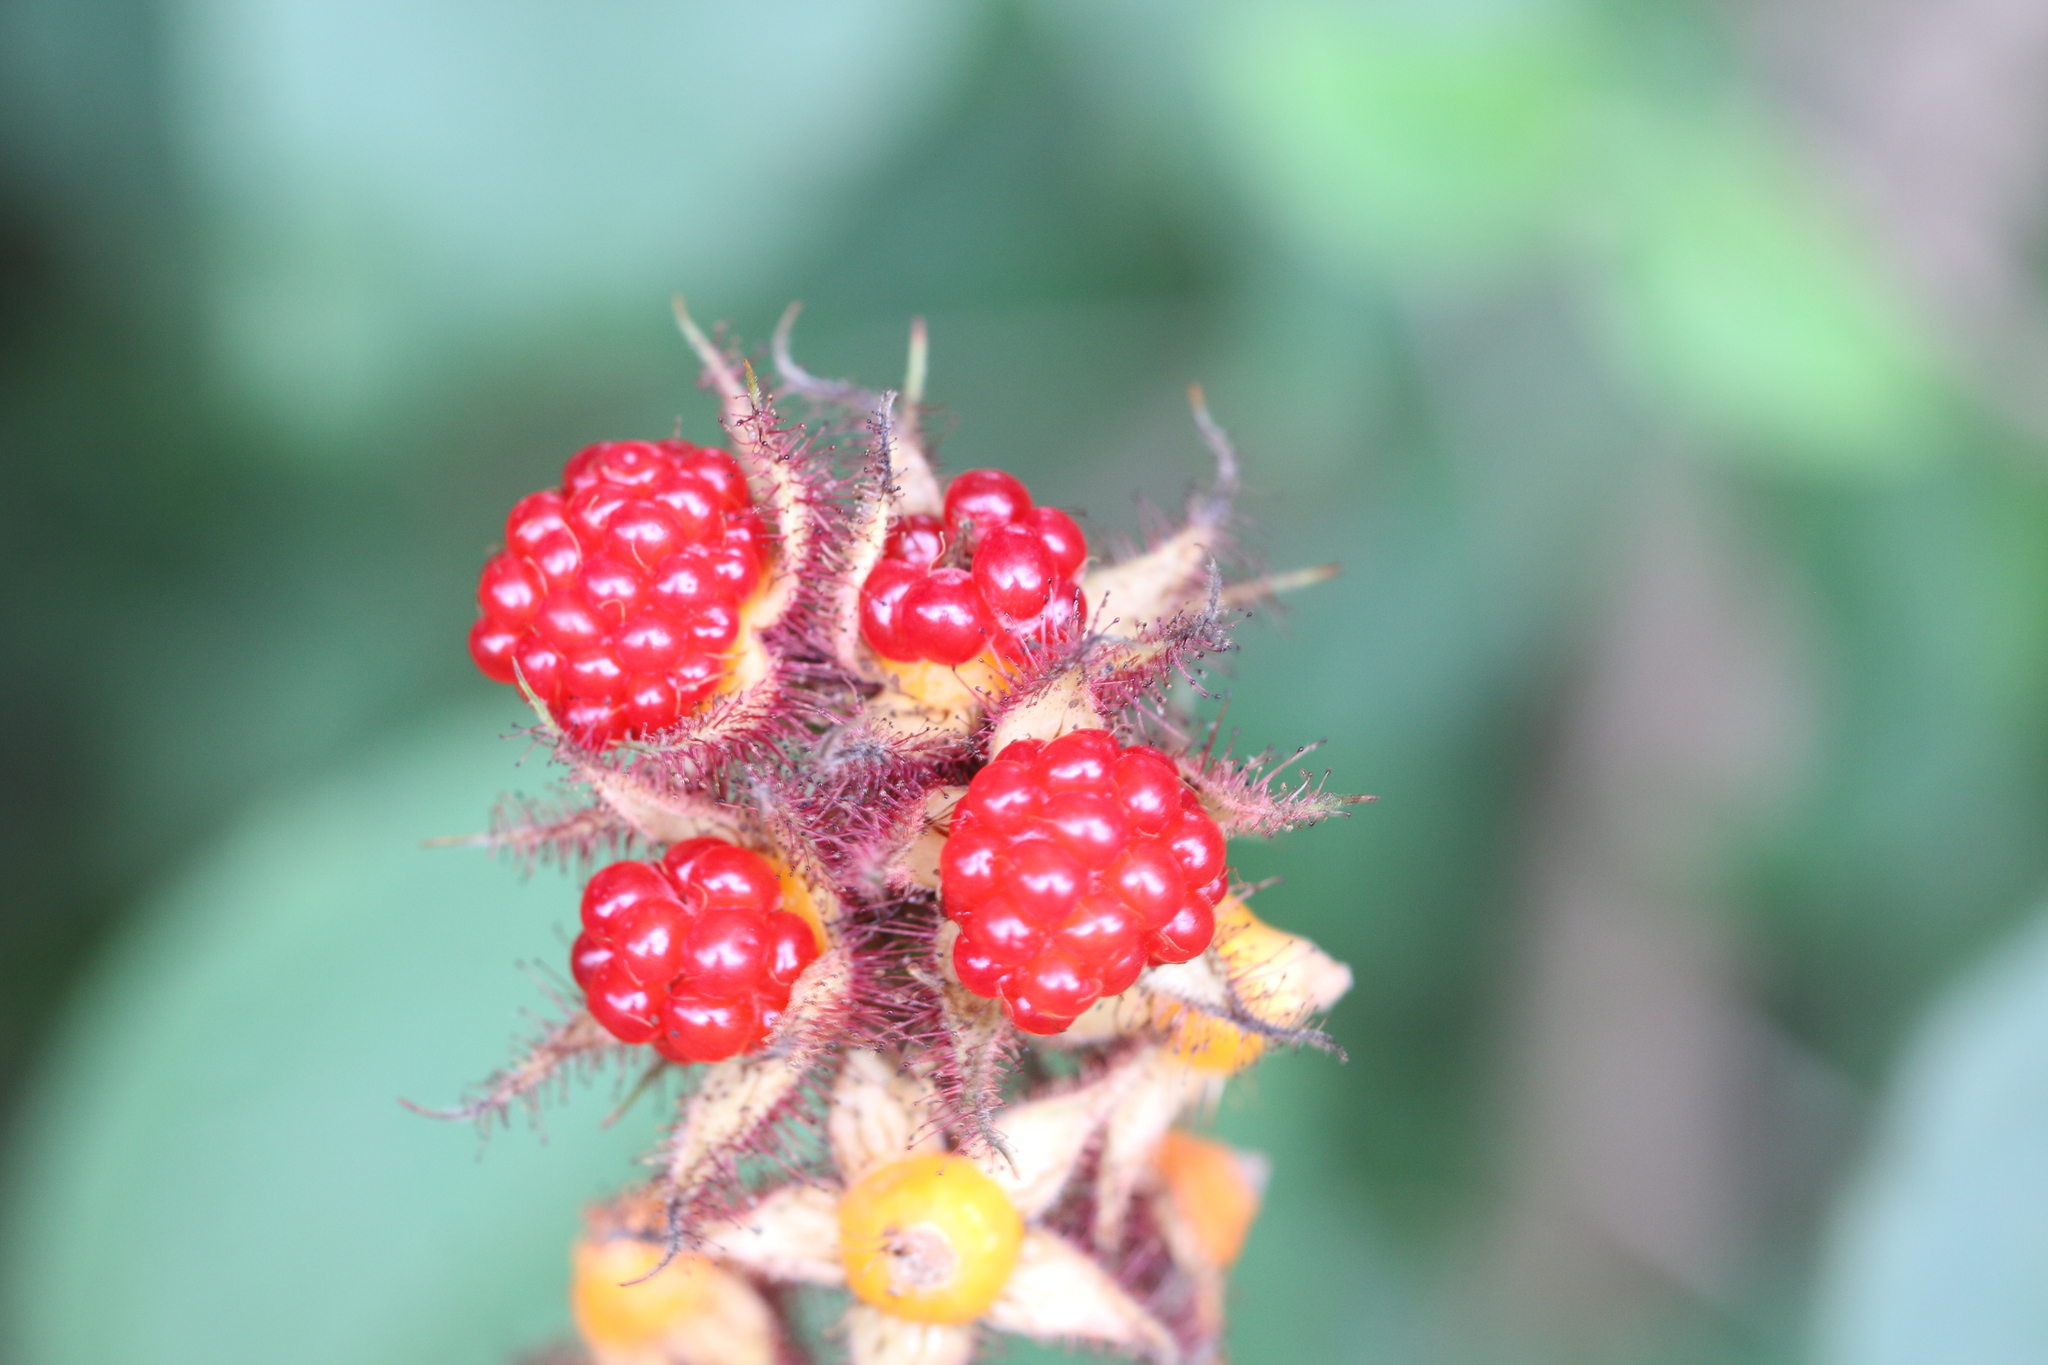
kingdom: Plantae
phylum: Tracheophyta
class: Magnoliopsida
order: Rosales
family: Rosaceae
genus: Rubus
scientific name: Rubus phoenicolasius
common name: Japanese wineberry
